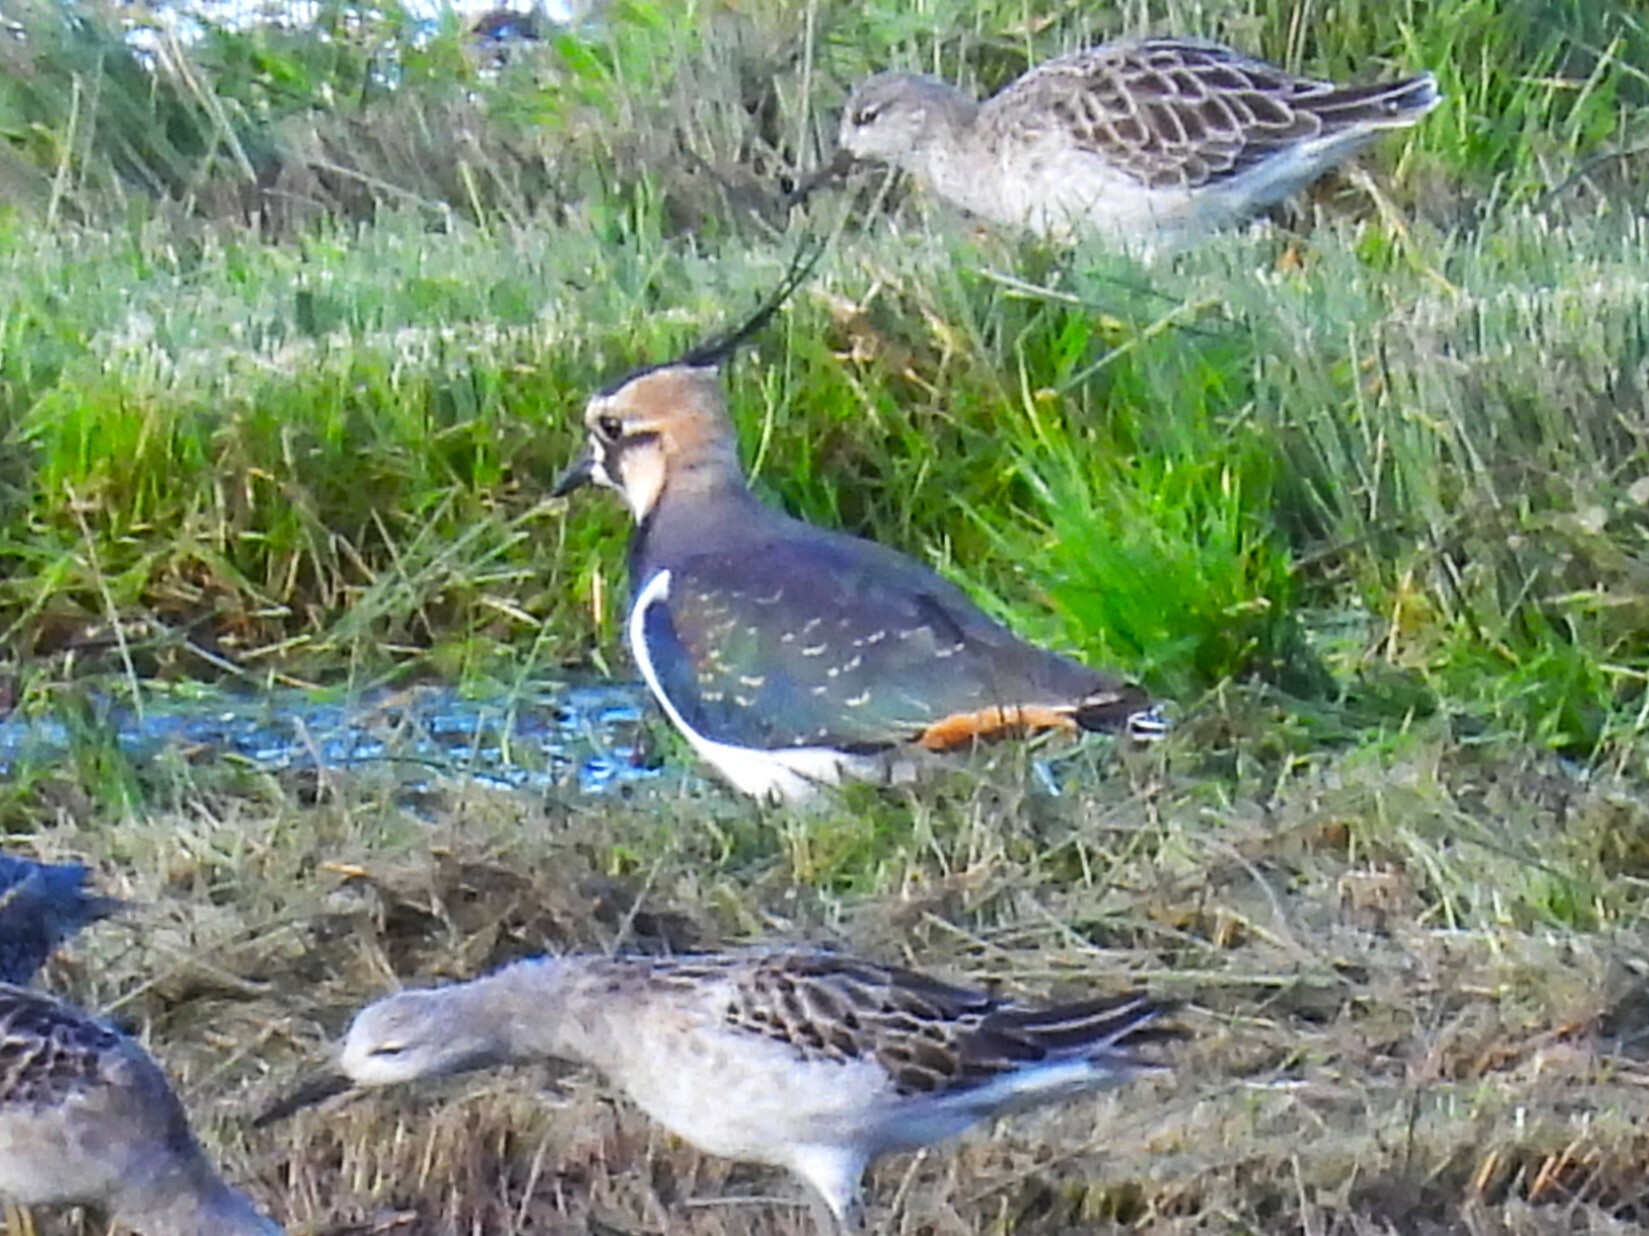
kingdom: Animalia
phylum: Chordata
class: Aves
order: Charadriiformes
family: Charadriidae
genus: Vanellus
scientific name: Vanellus vanellus
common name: Northern lapwing
